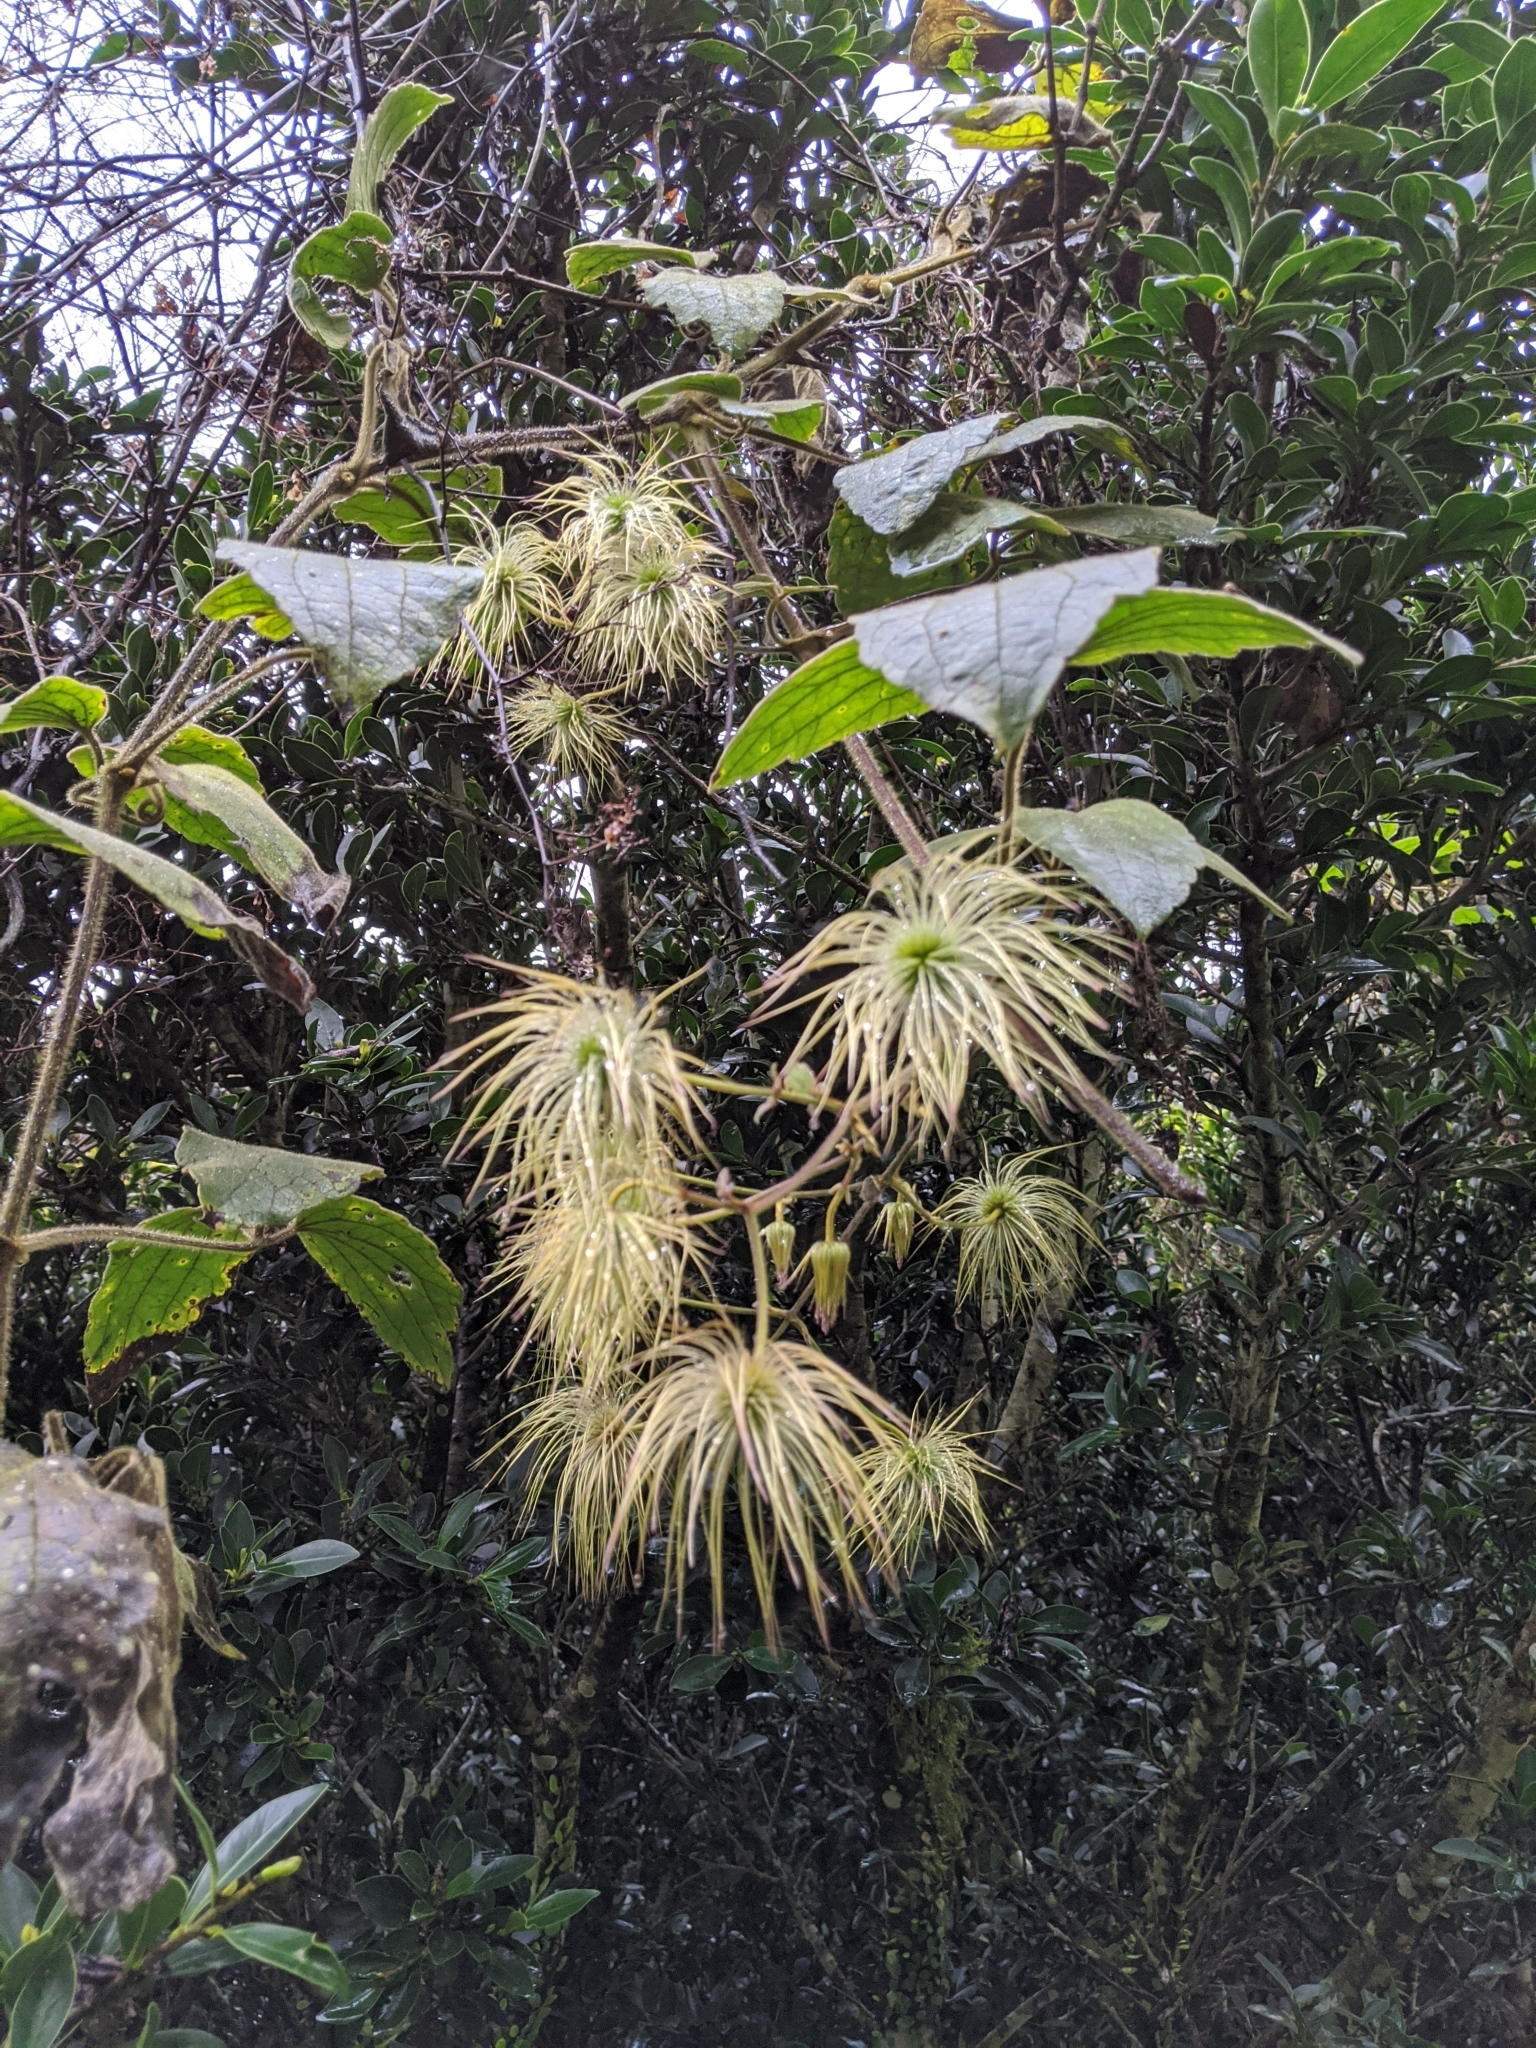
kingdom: Plantae
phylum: Tracheophyta
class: Magnoliopsida
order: Ranunculales
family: Ranunculaceae
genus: Clematis
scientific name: Clematis leschenaultiana
